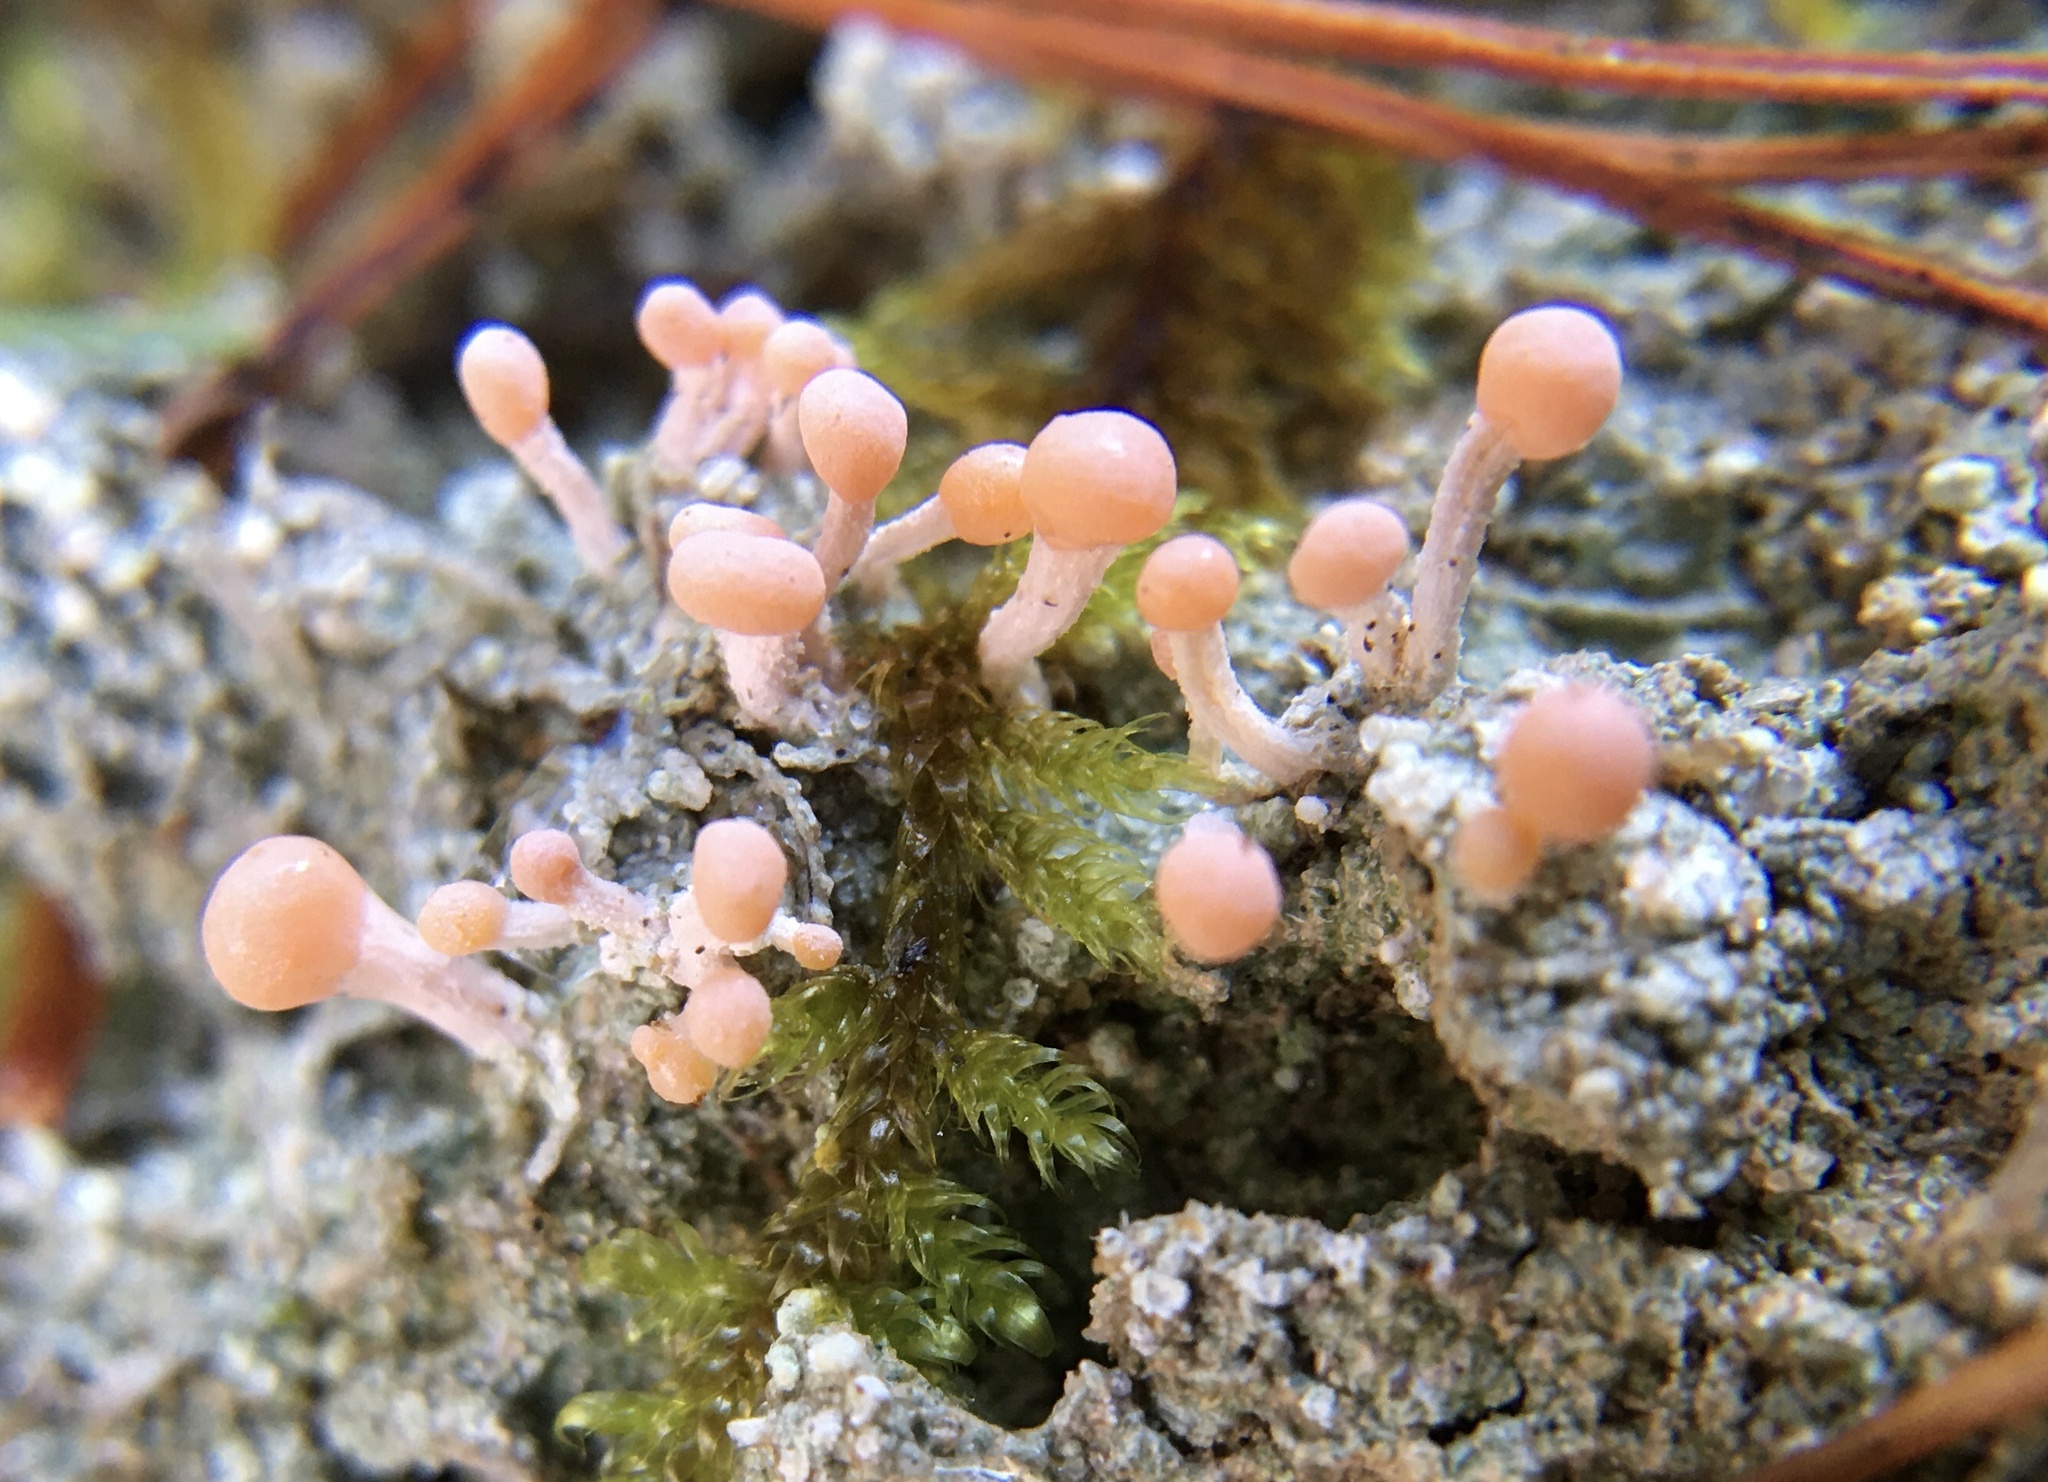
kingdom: Fungi
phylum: Ascomycota
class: Lecanoromycetes
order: Pertusariales
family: Icmadophilaceae
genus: Dibaeis
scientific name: Dibaeis baeomyces
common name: Pink earth lichen
